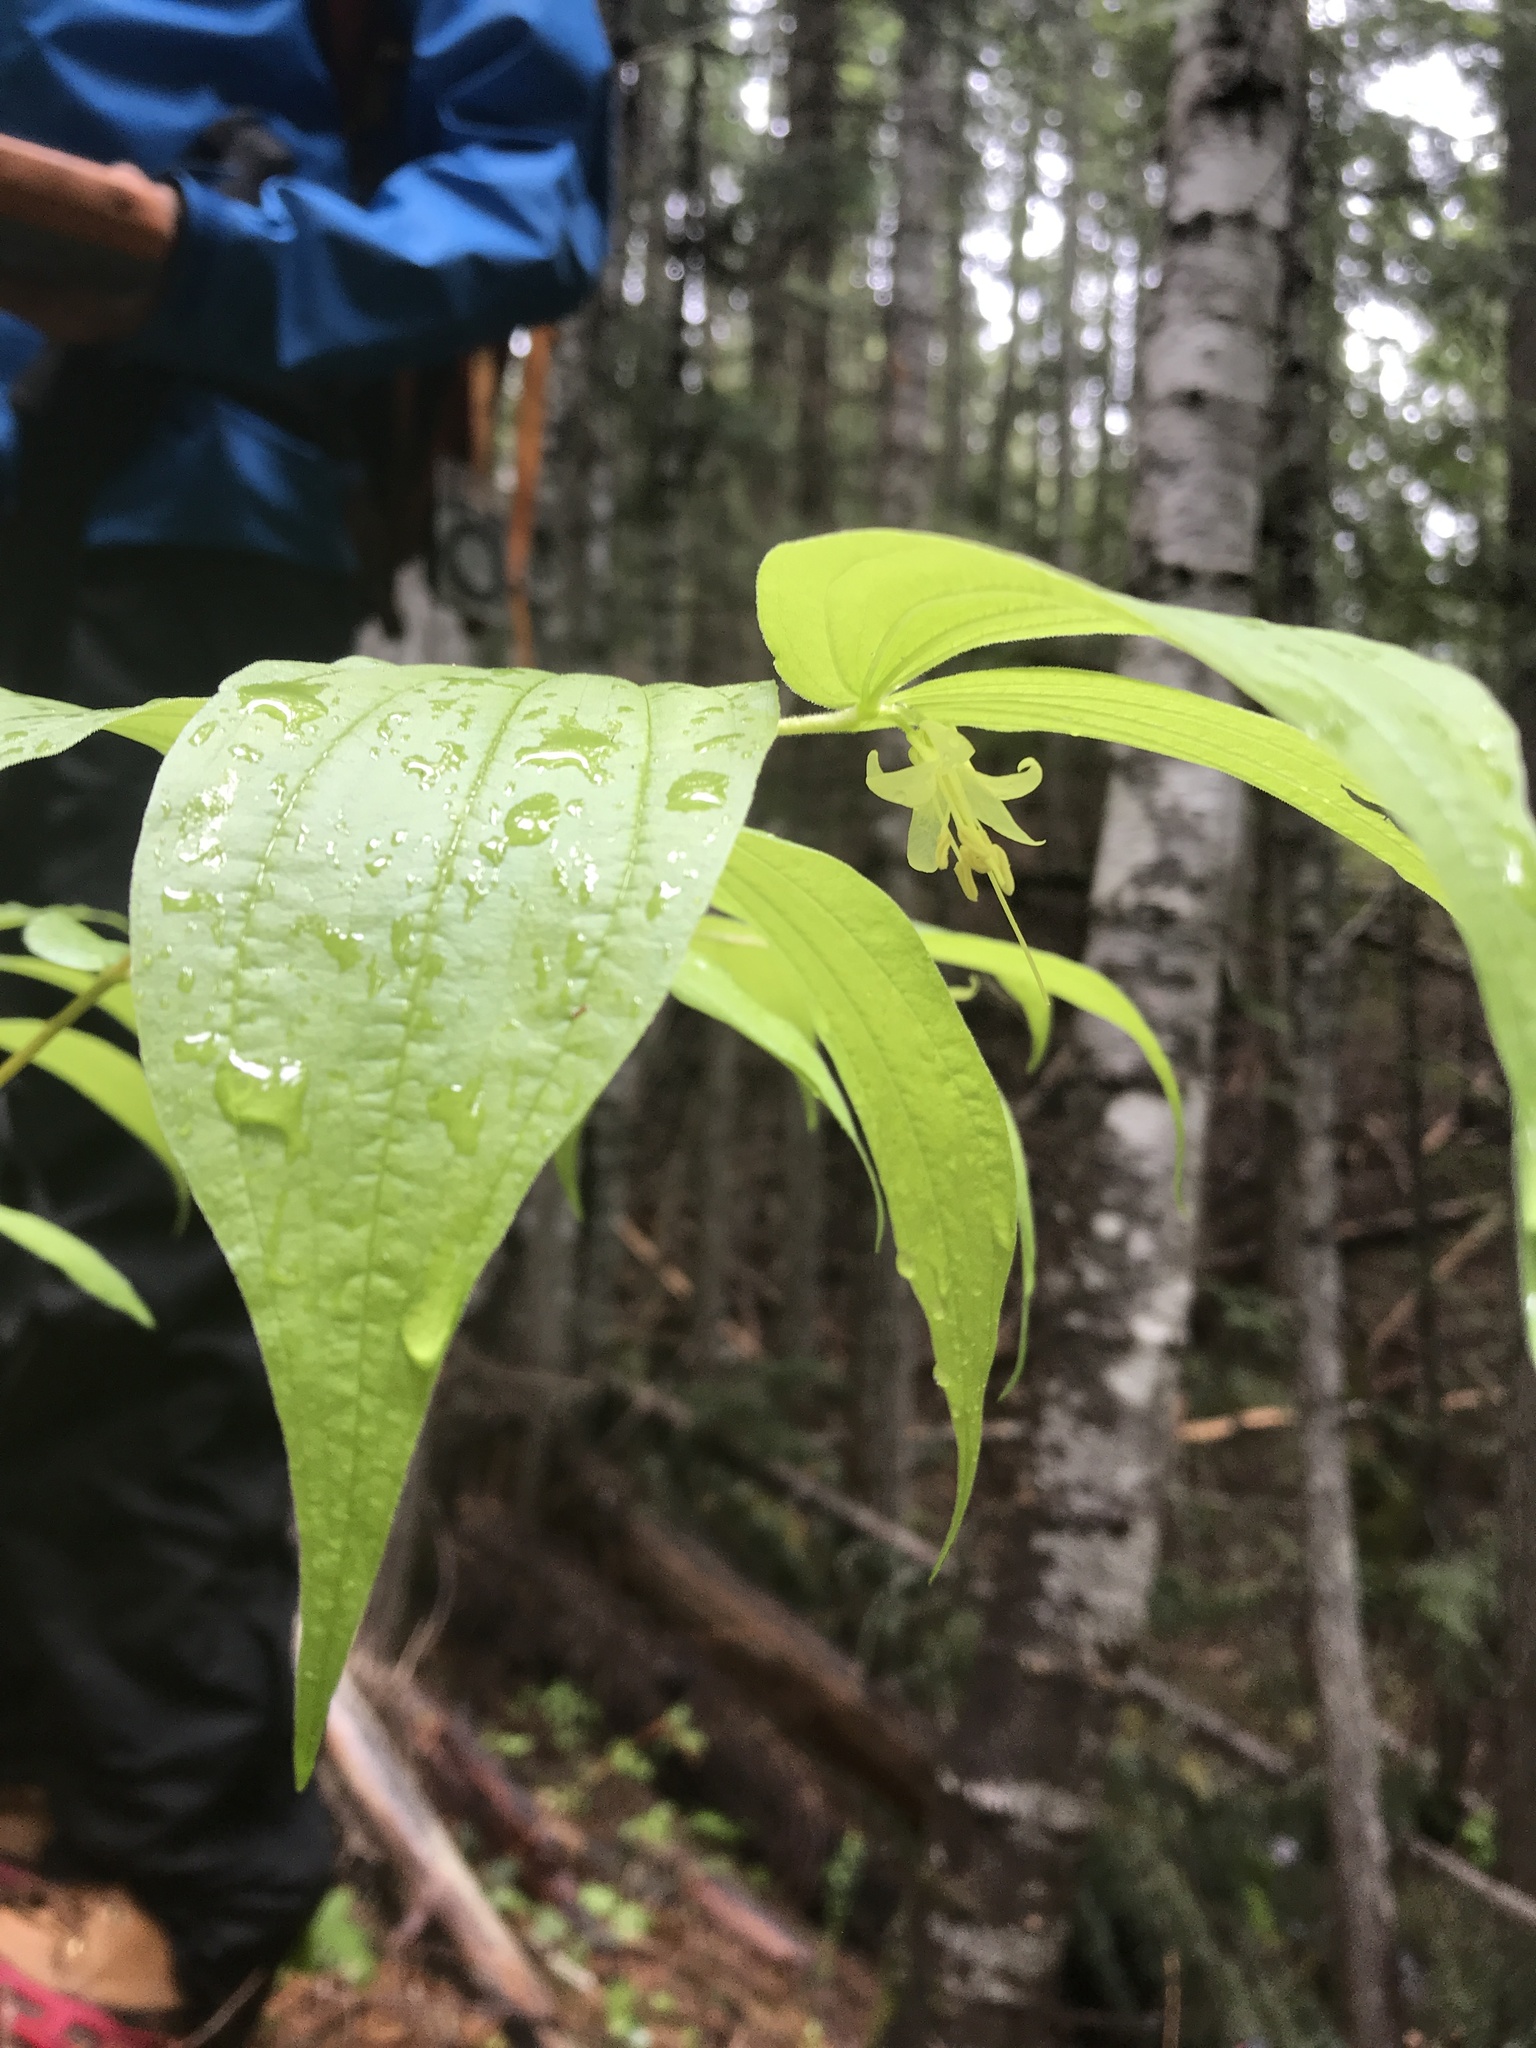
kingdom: Plantae
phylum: Tracheophyta
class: Liliopsida
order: Liliales
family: Liliaceae
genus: Prosartes
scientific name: Prosartes hookeri
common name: Fairy-bells
